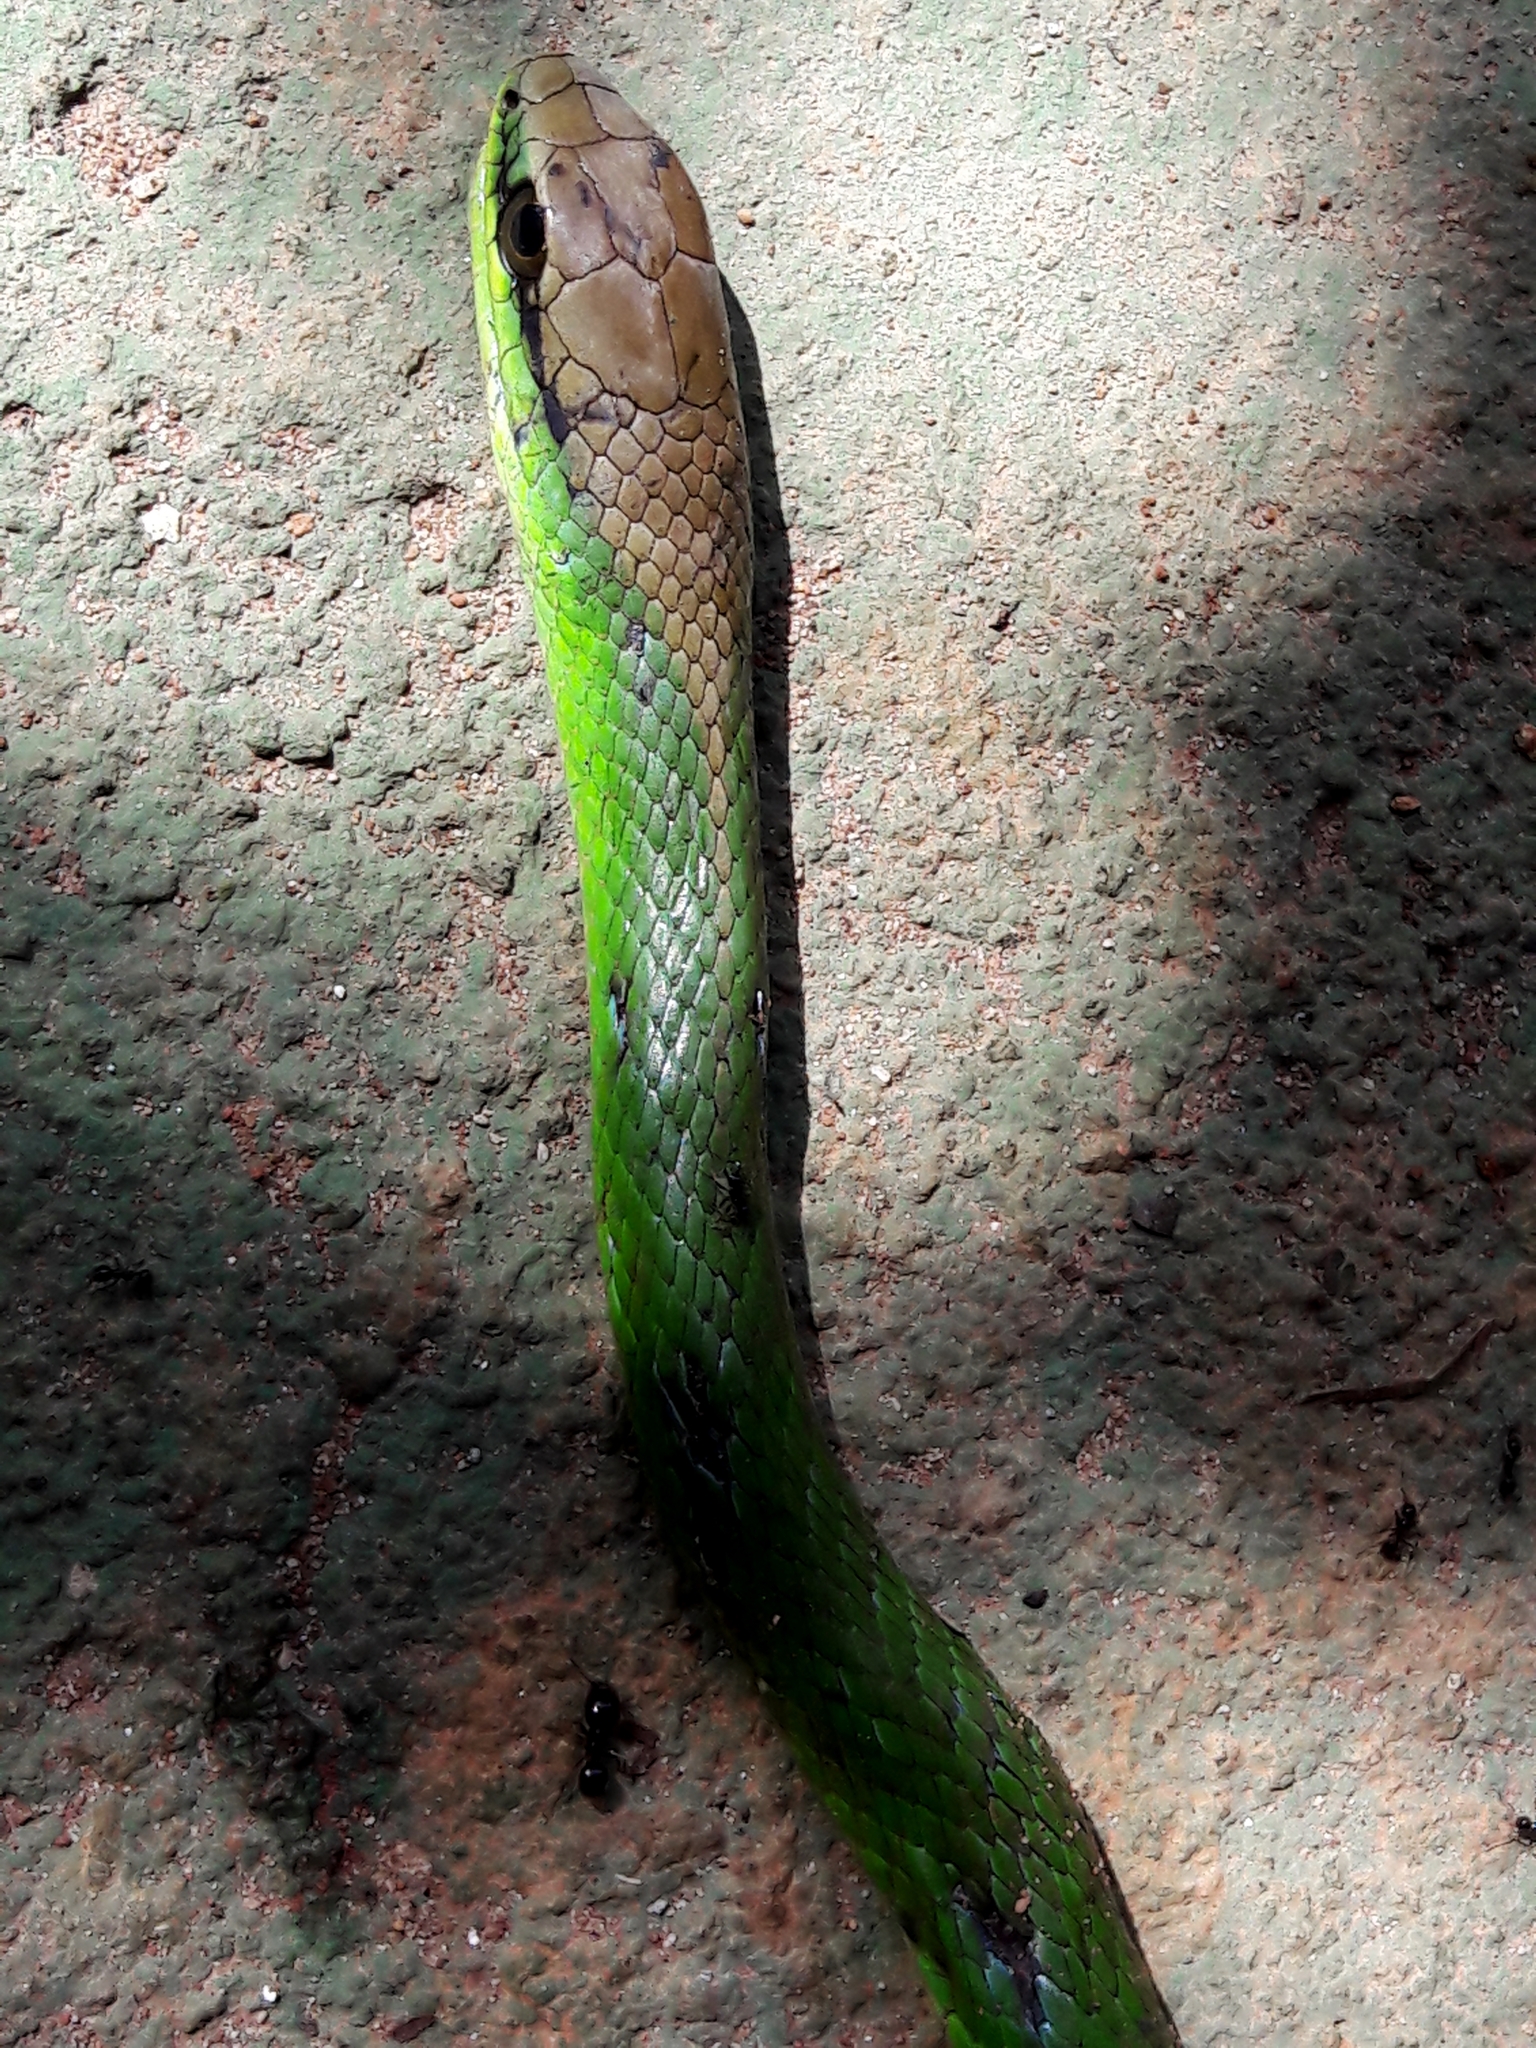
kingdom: Animalia
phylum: Chordata
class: Squamata
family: Colubridae
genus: Philodryas
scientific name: Philodryas olfersii
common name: Lichtenstein's green racer
